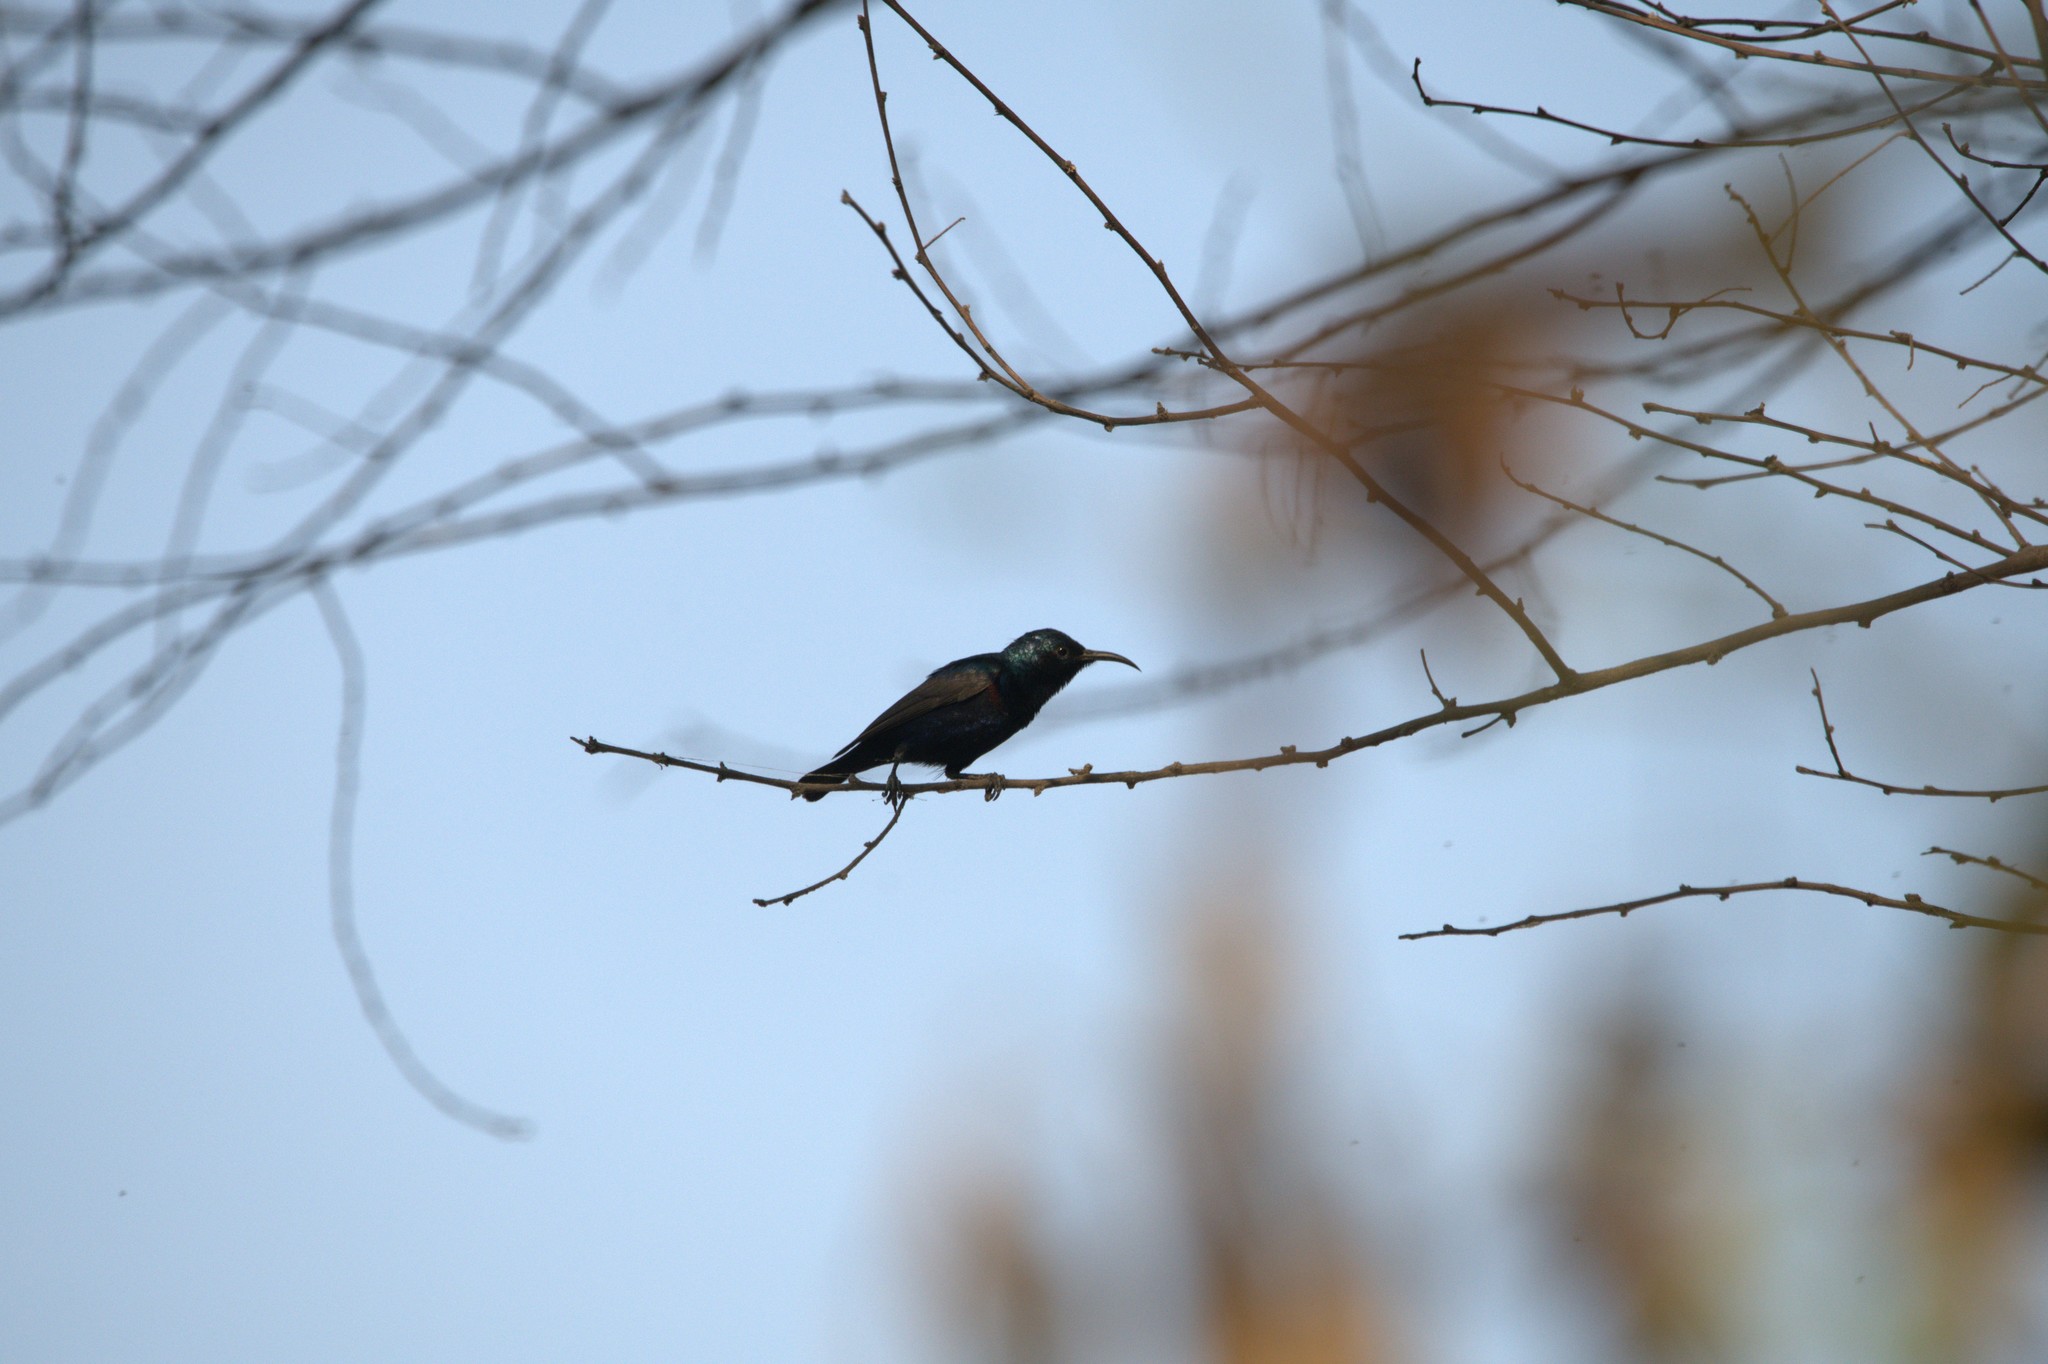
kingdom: Animalia
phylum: Chordata
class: Aves
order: Passeriformes
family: Nectariniidae
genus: Cinnyris
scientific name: Cinnyris asiaticus
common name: Purple sunbird
